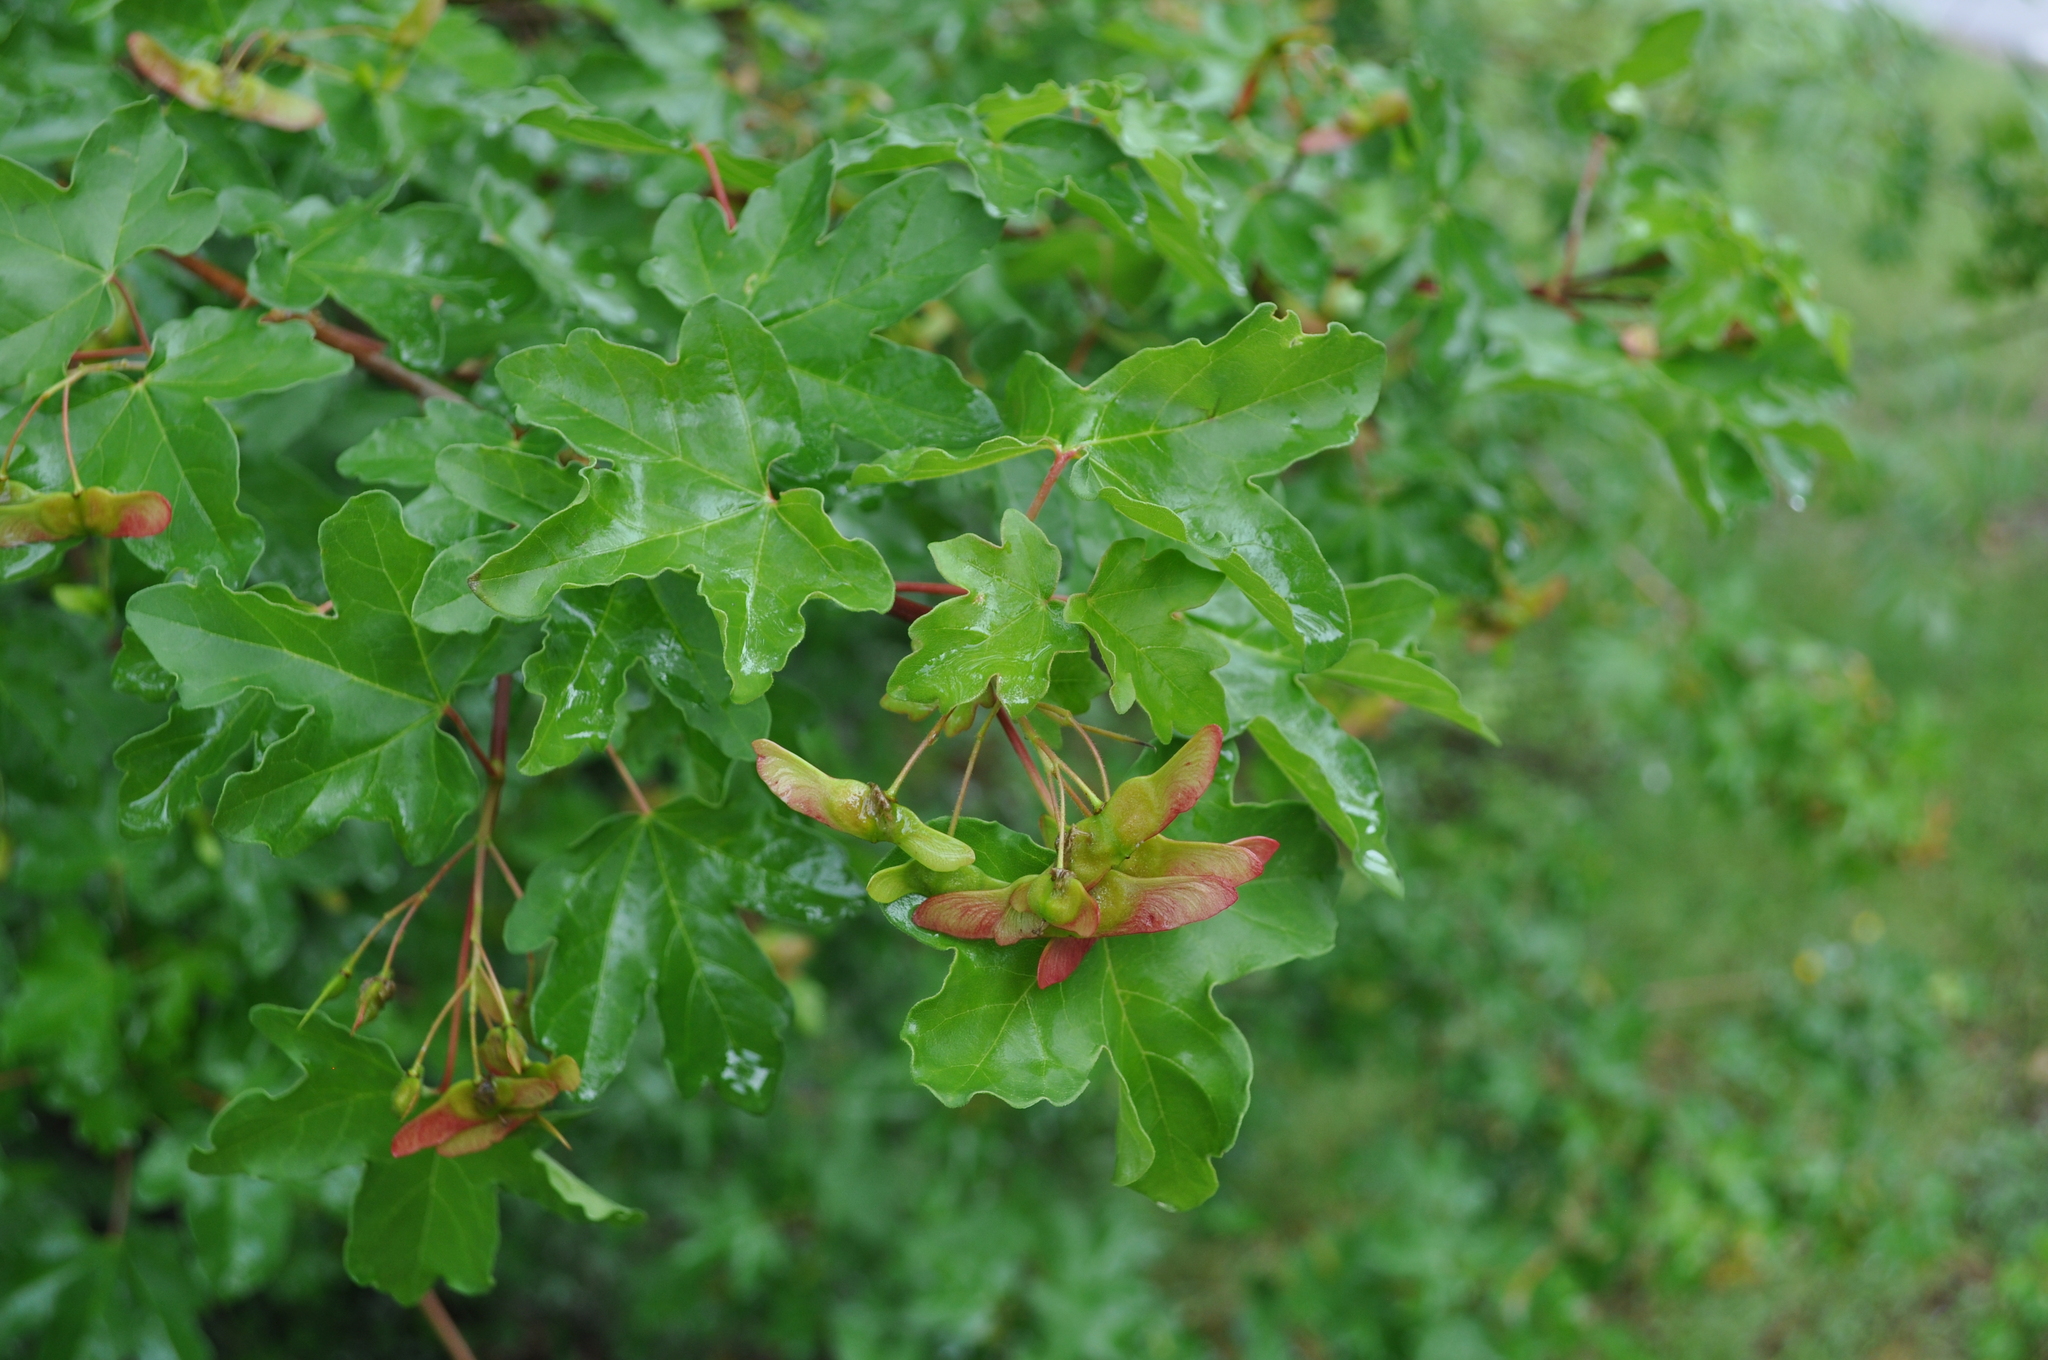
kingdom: Plantae
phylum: Tracheophyta
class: Magnoliopsida
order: Sapindales
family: Sapindaceae
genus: Acer
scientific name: Acer campestre
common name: Field maple
